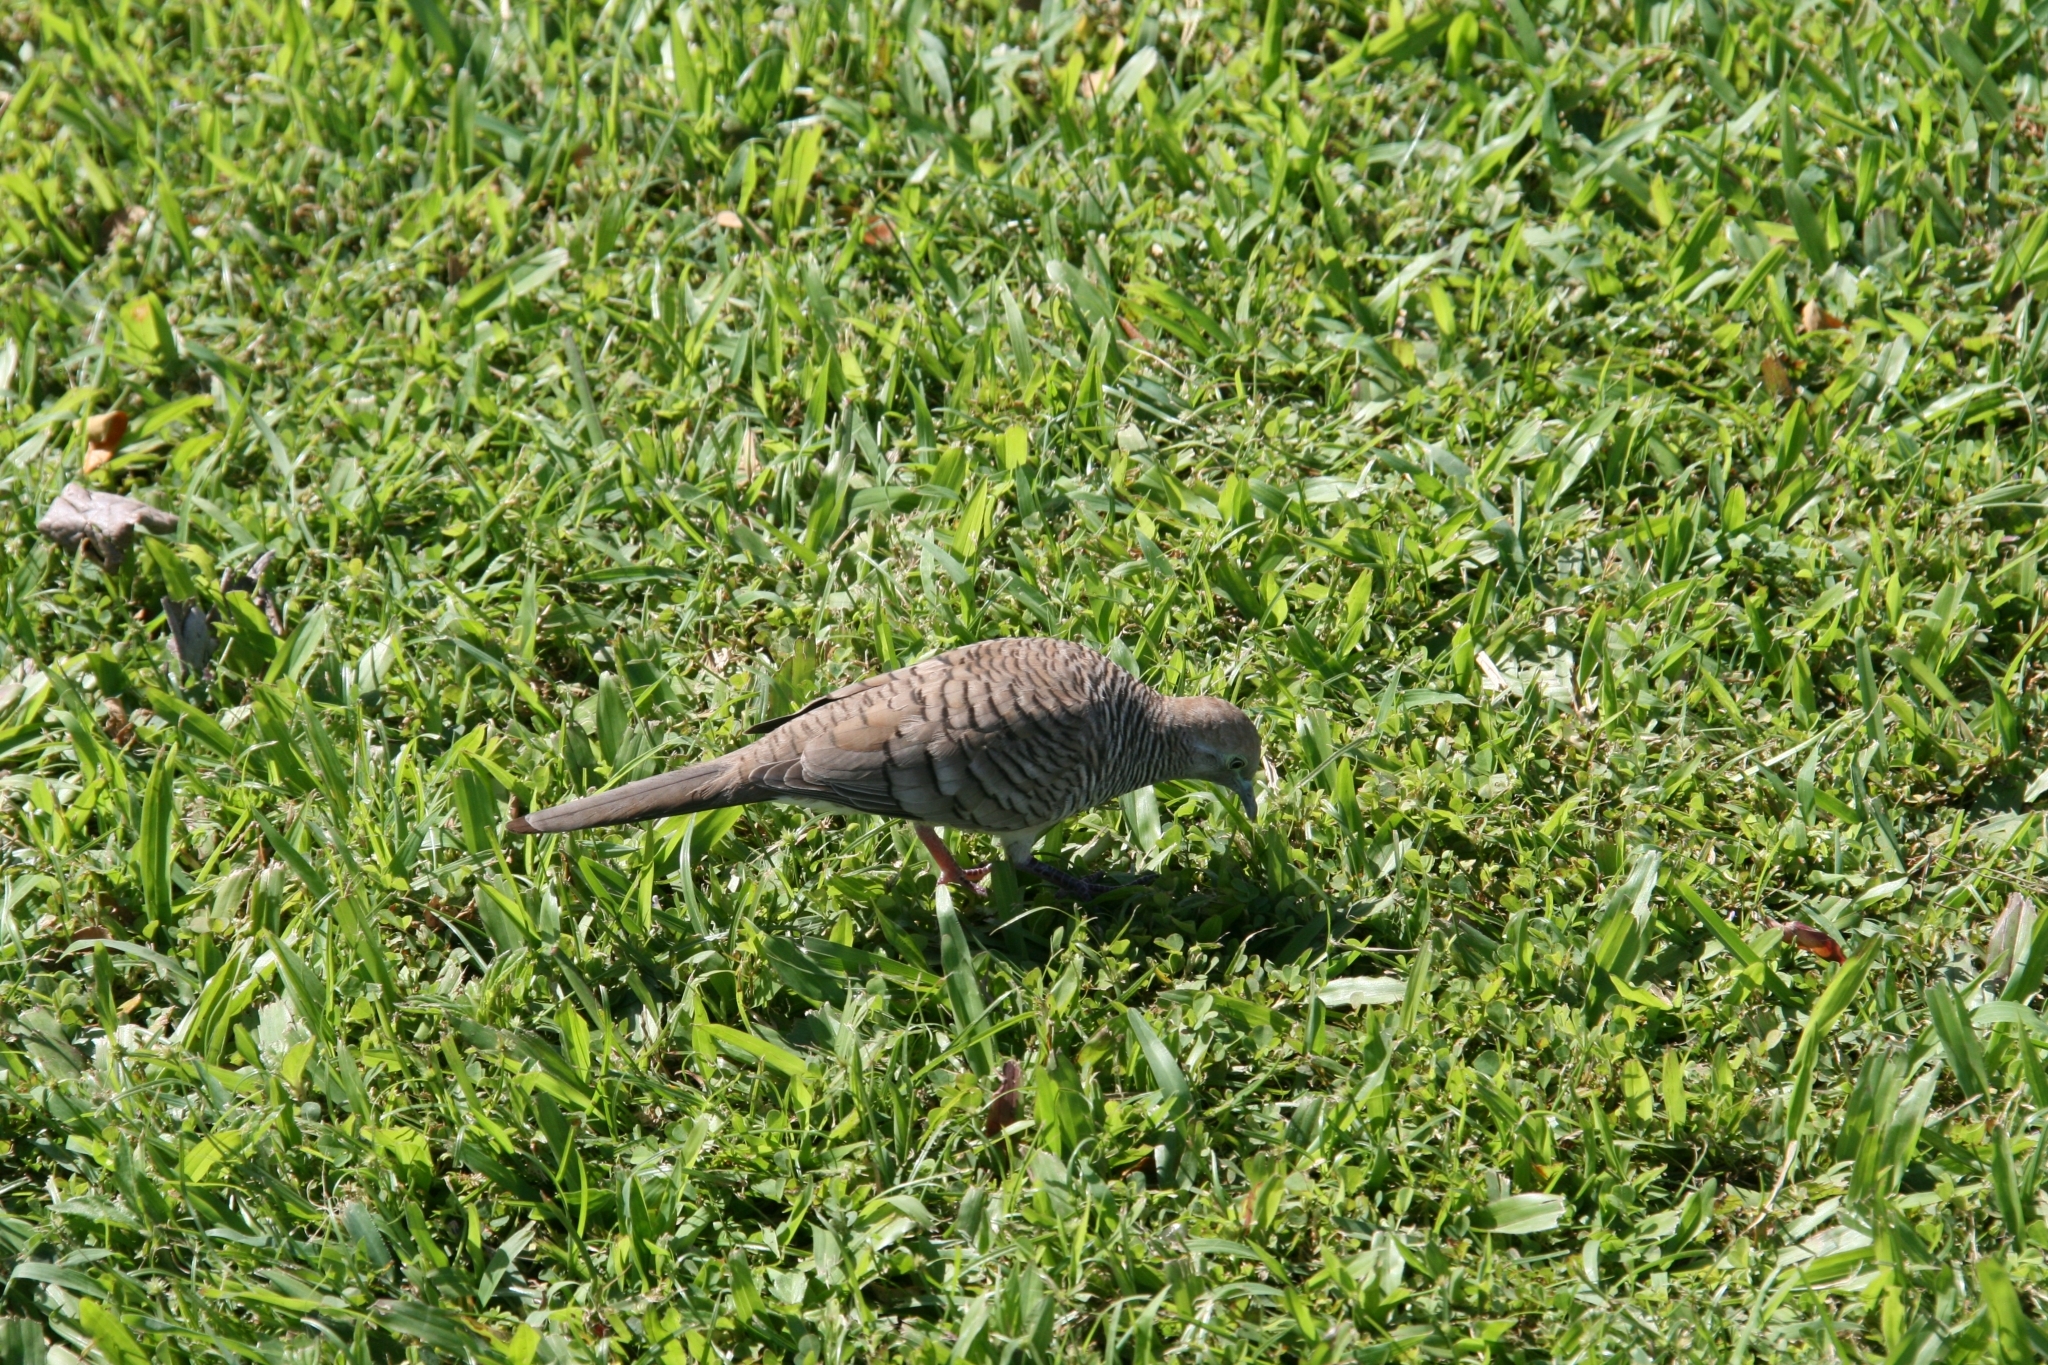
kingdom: Animalia
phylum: Chordata
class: Aves
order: Columbiformes
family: Columbidae
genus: Geopelia
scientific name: Geopelia striata
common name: Zebra dove
